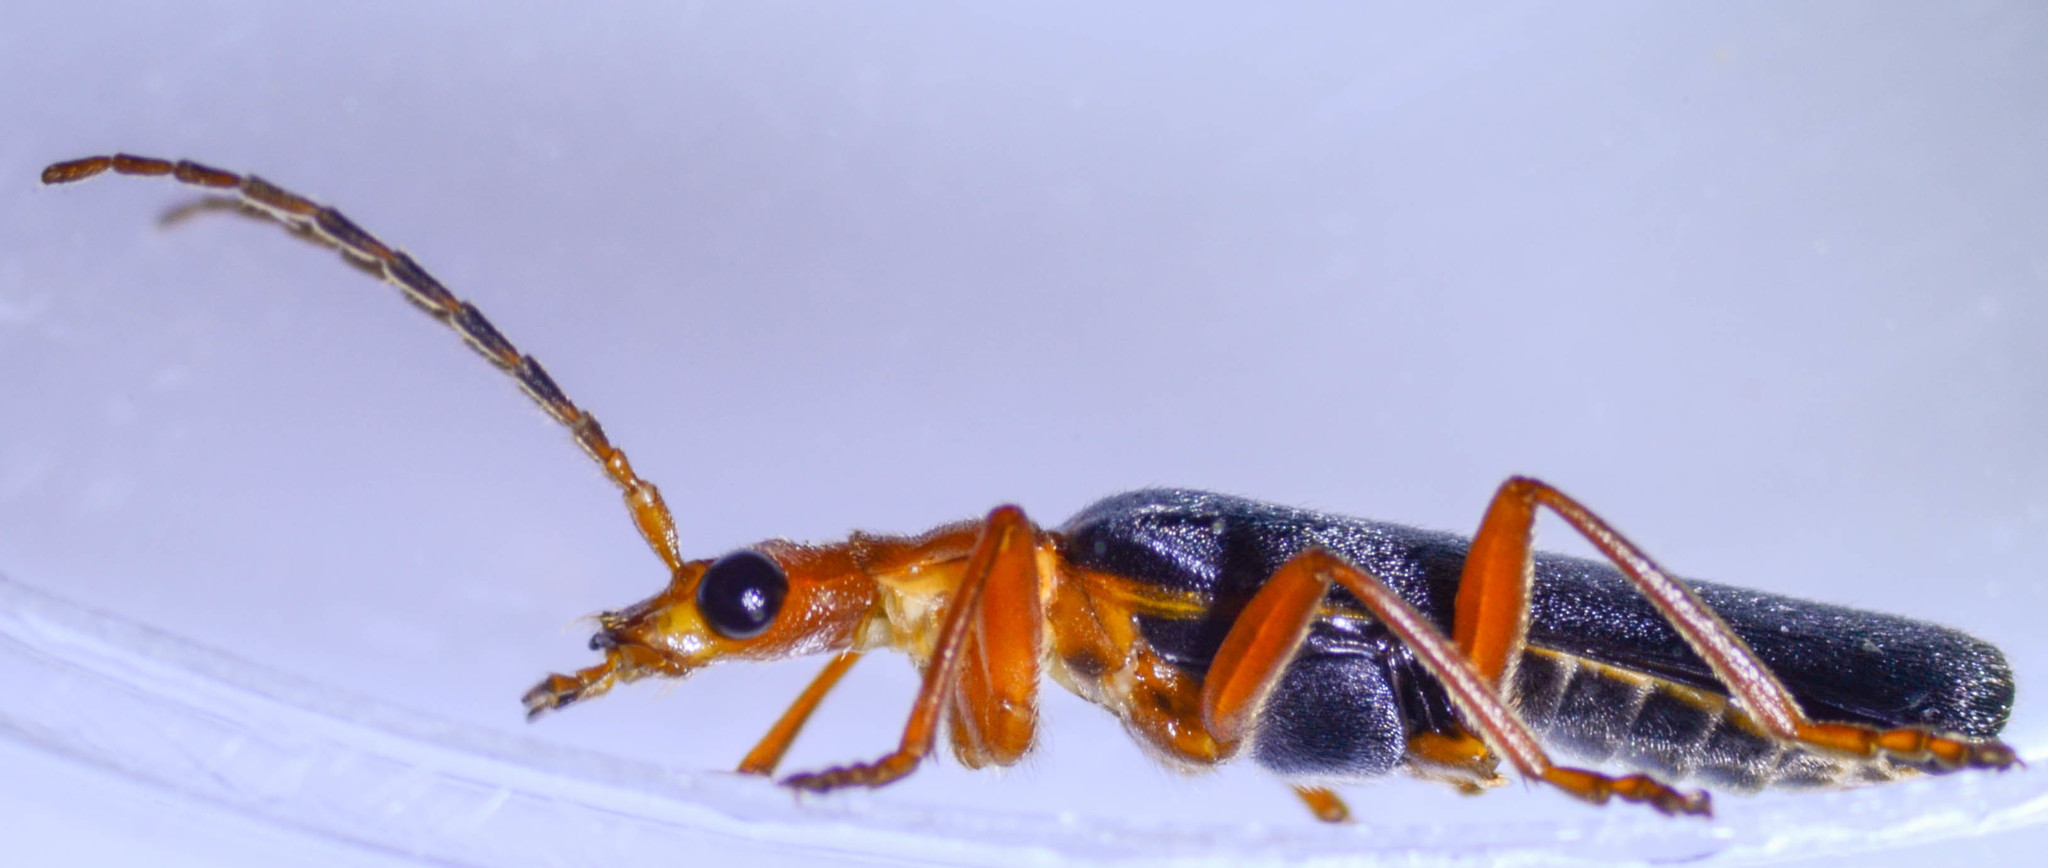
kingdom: Animalia
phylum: Arthropoda
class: Insecta
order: Coleoptera
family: Cantharidae
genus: Podabrus
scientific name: Podabrus pruinosus
